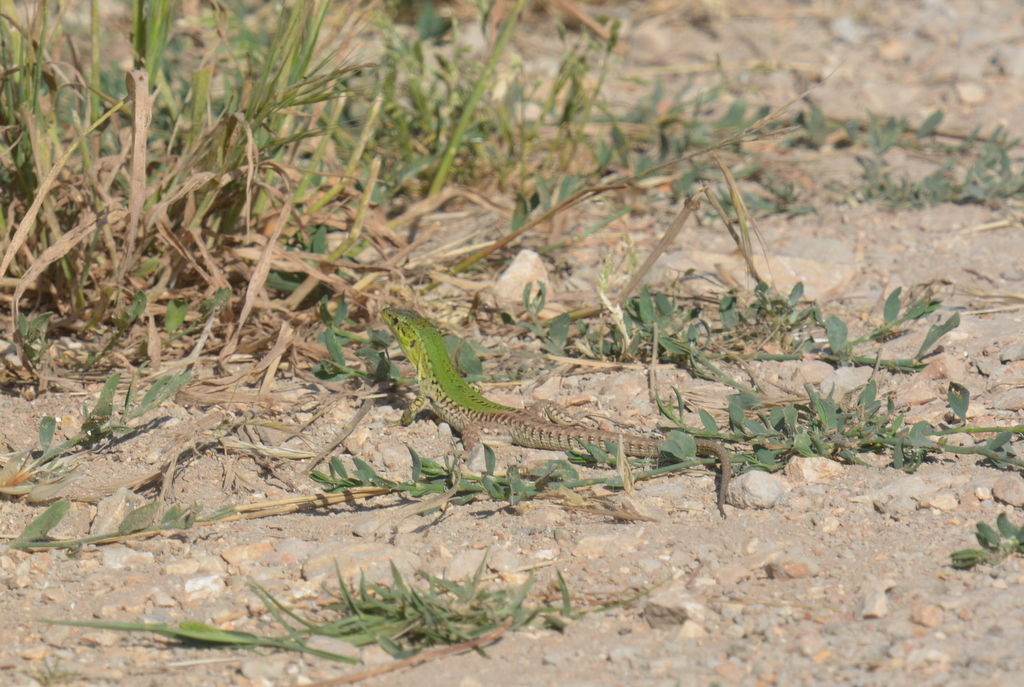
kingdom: Animalia
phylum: Chordata
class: Squamata
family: Lacertidae
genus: Podarcis
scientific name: Podarcis siculus
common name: Italian wall lizard
